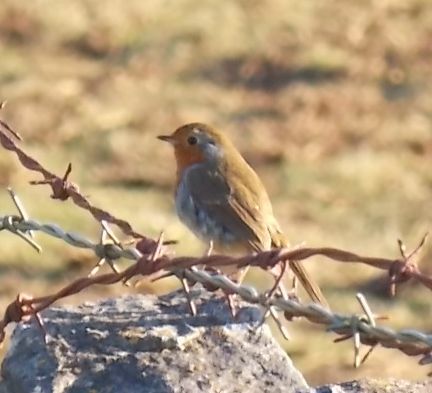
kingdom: Animalia
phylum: Chordata
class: Aves
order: Passeriformes
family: Muscicapidae
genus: Erithacus
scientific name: Erithacus rubecula
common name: European robin
